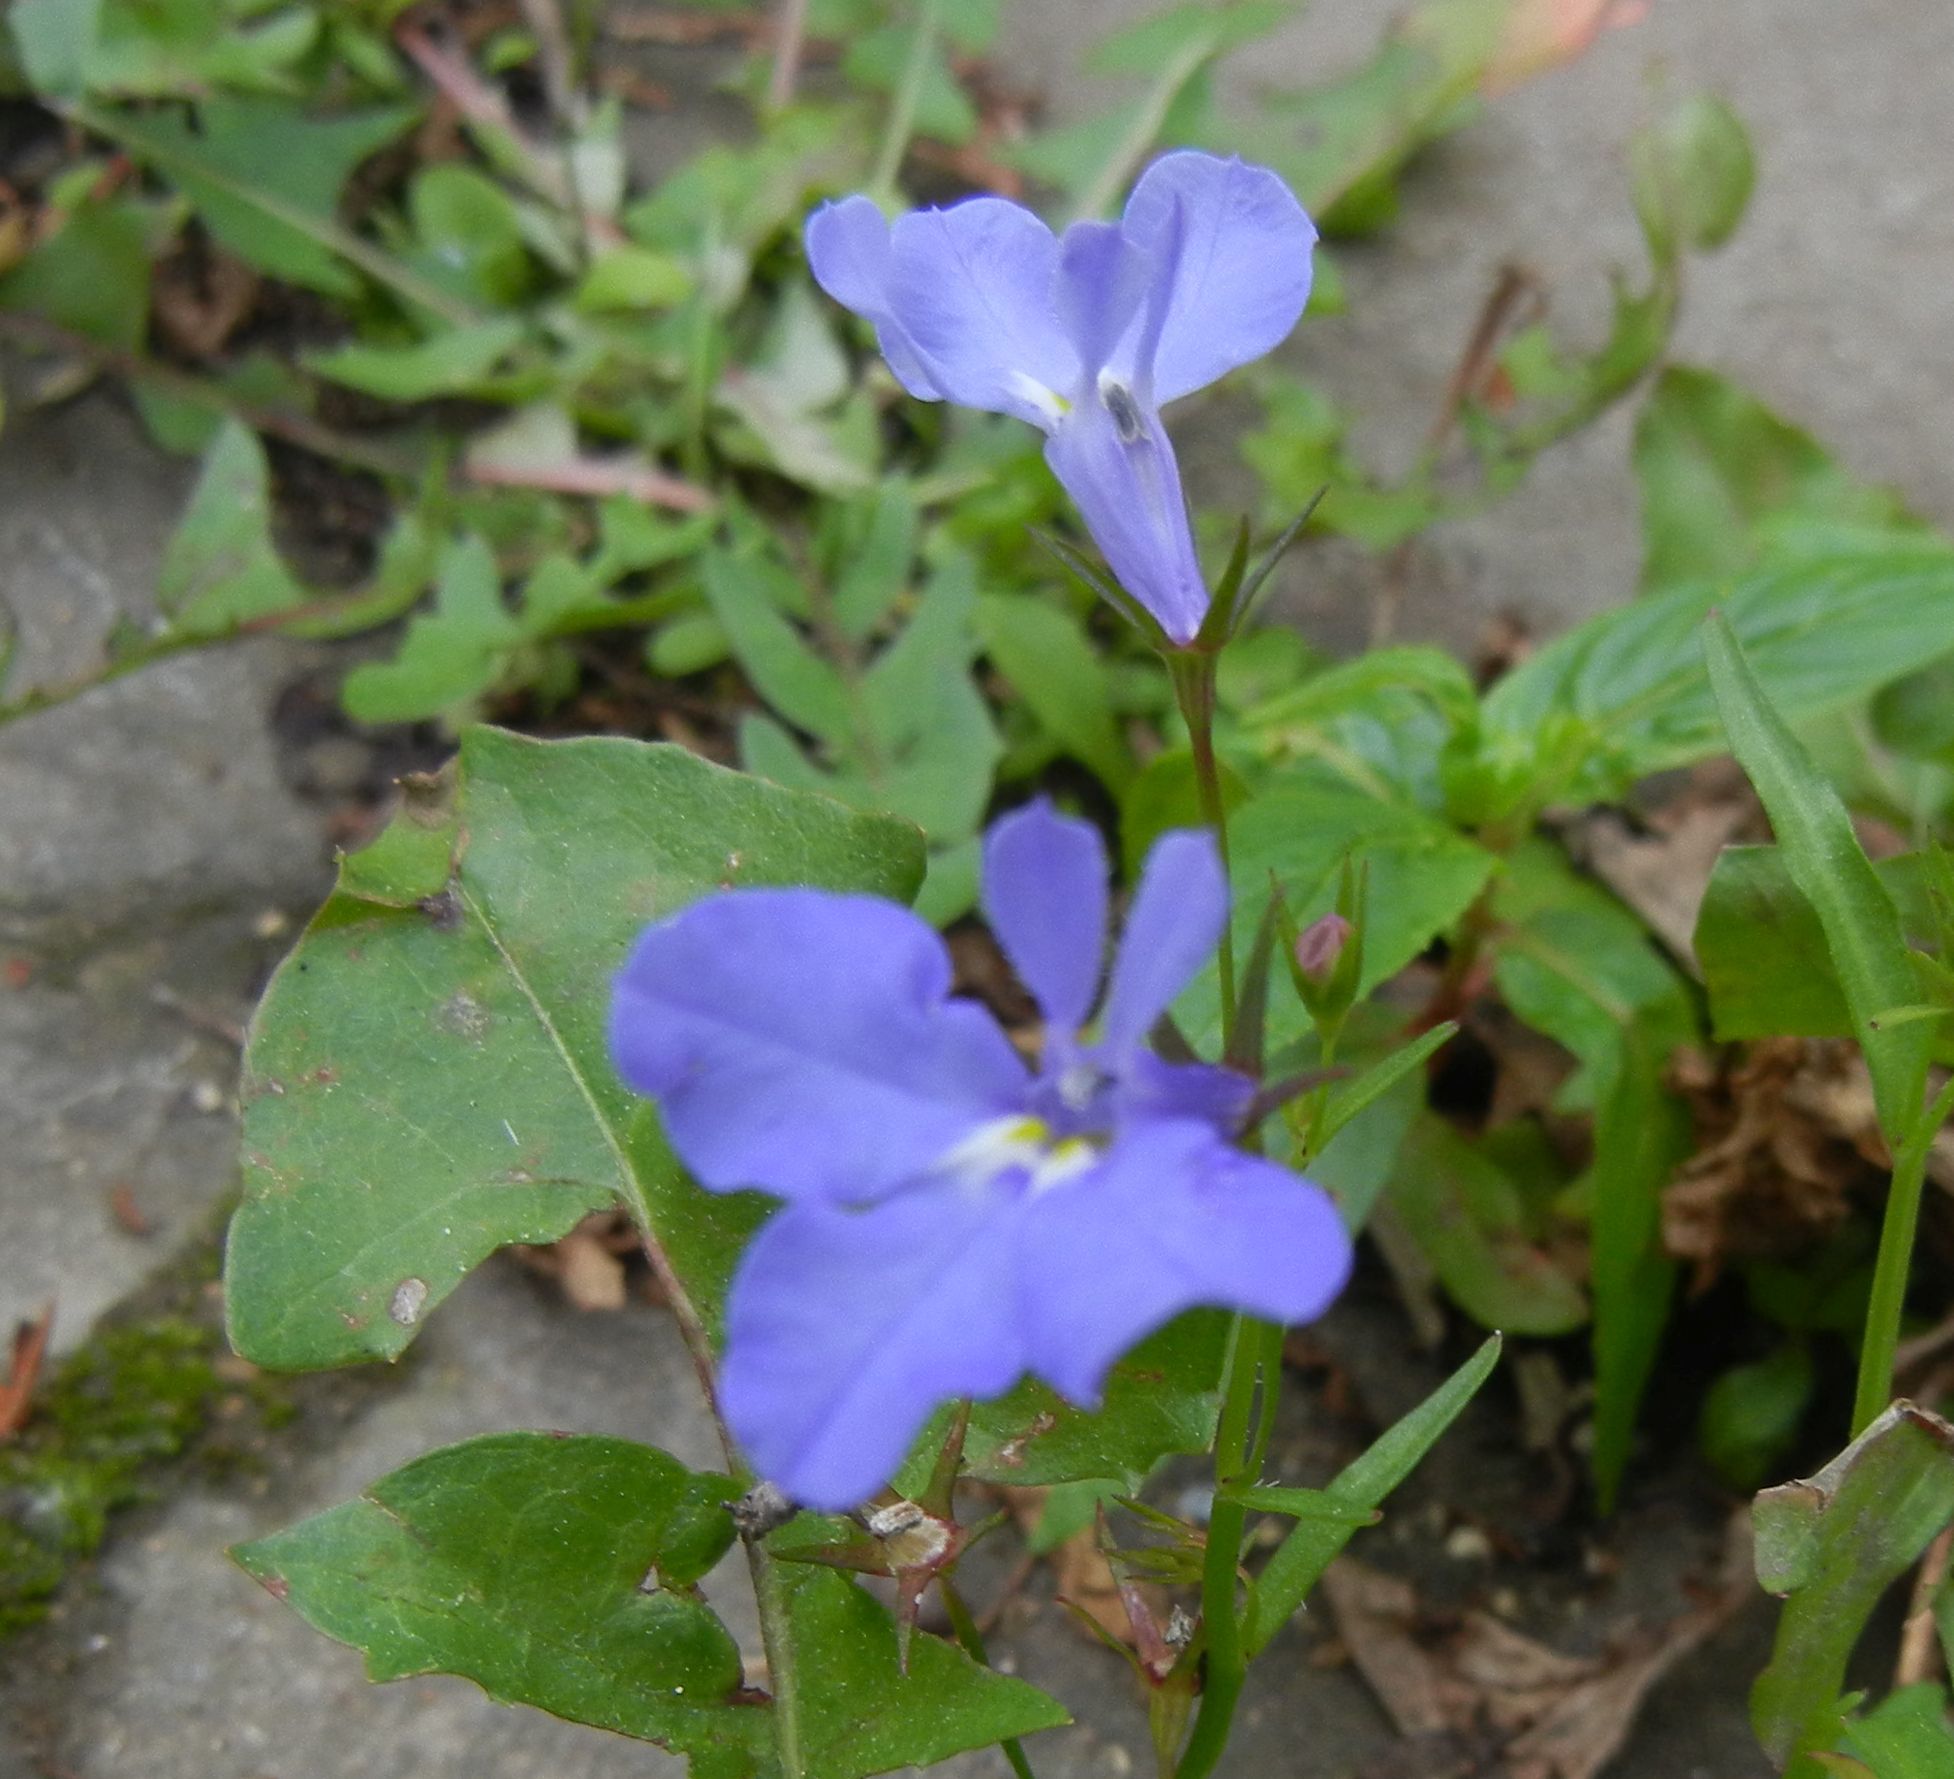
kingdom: Plantae
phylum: Tracheophyta
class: Magnoliopsida
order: Asterales
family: Campanulaceae
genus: Lobelia
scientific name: Lobelia erinus
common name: Edging lobelia
